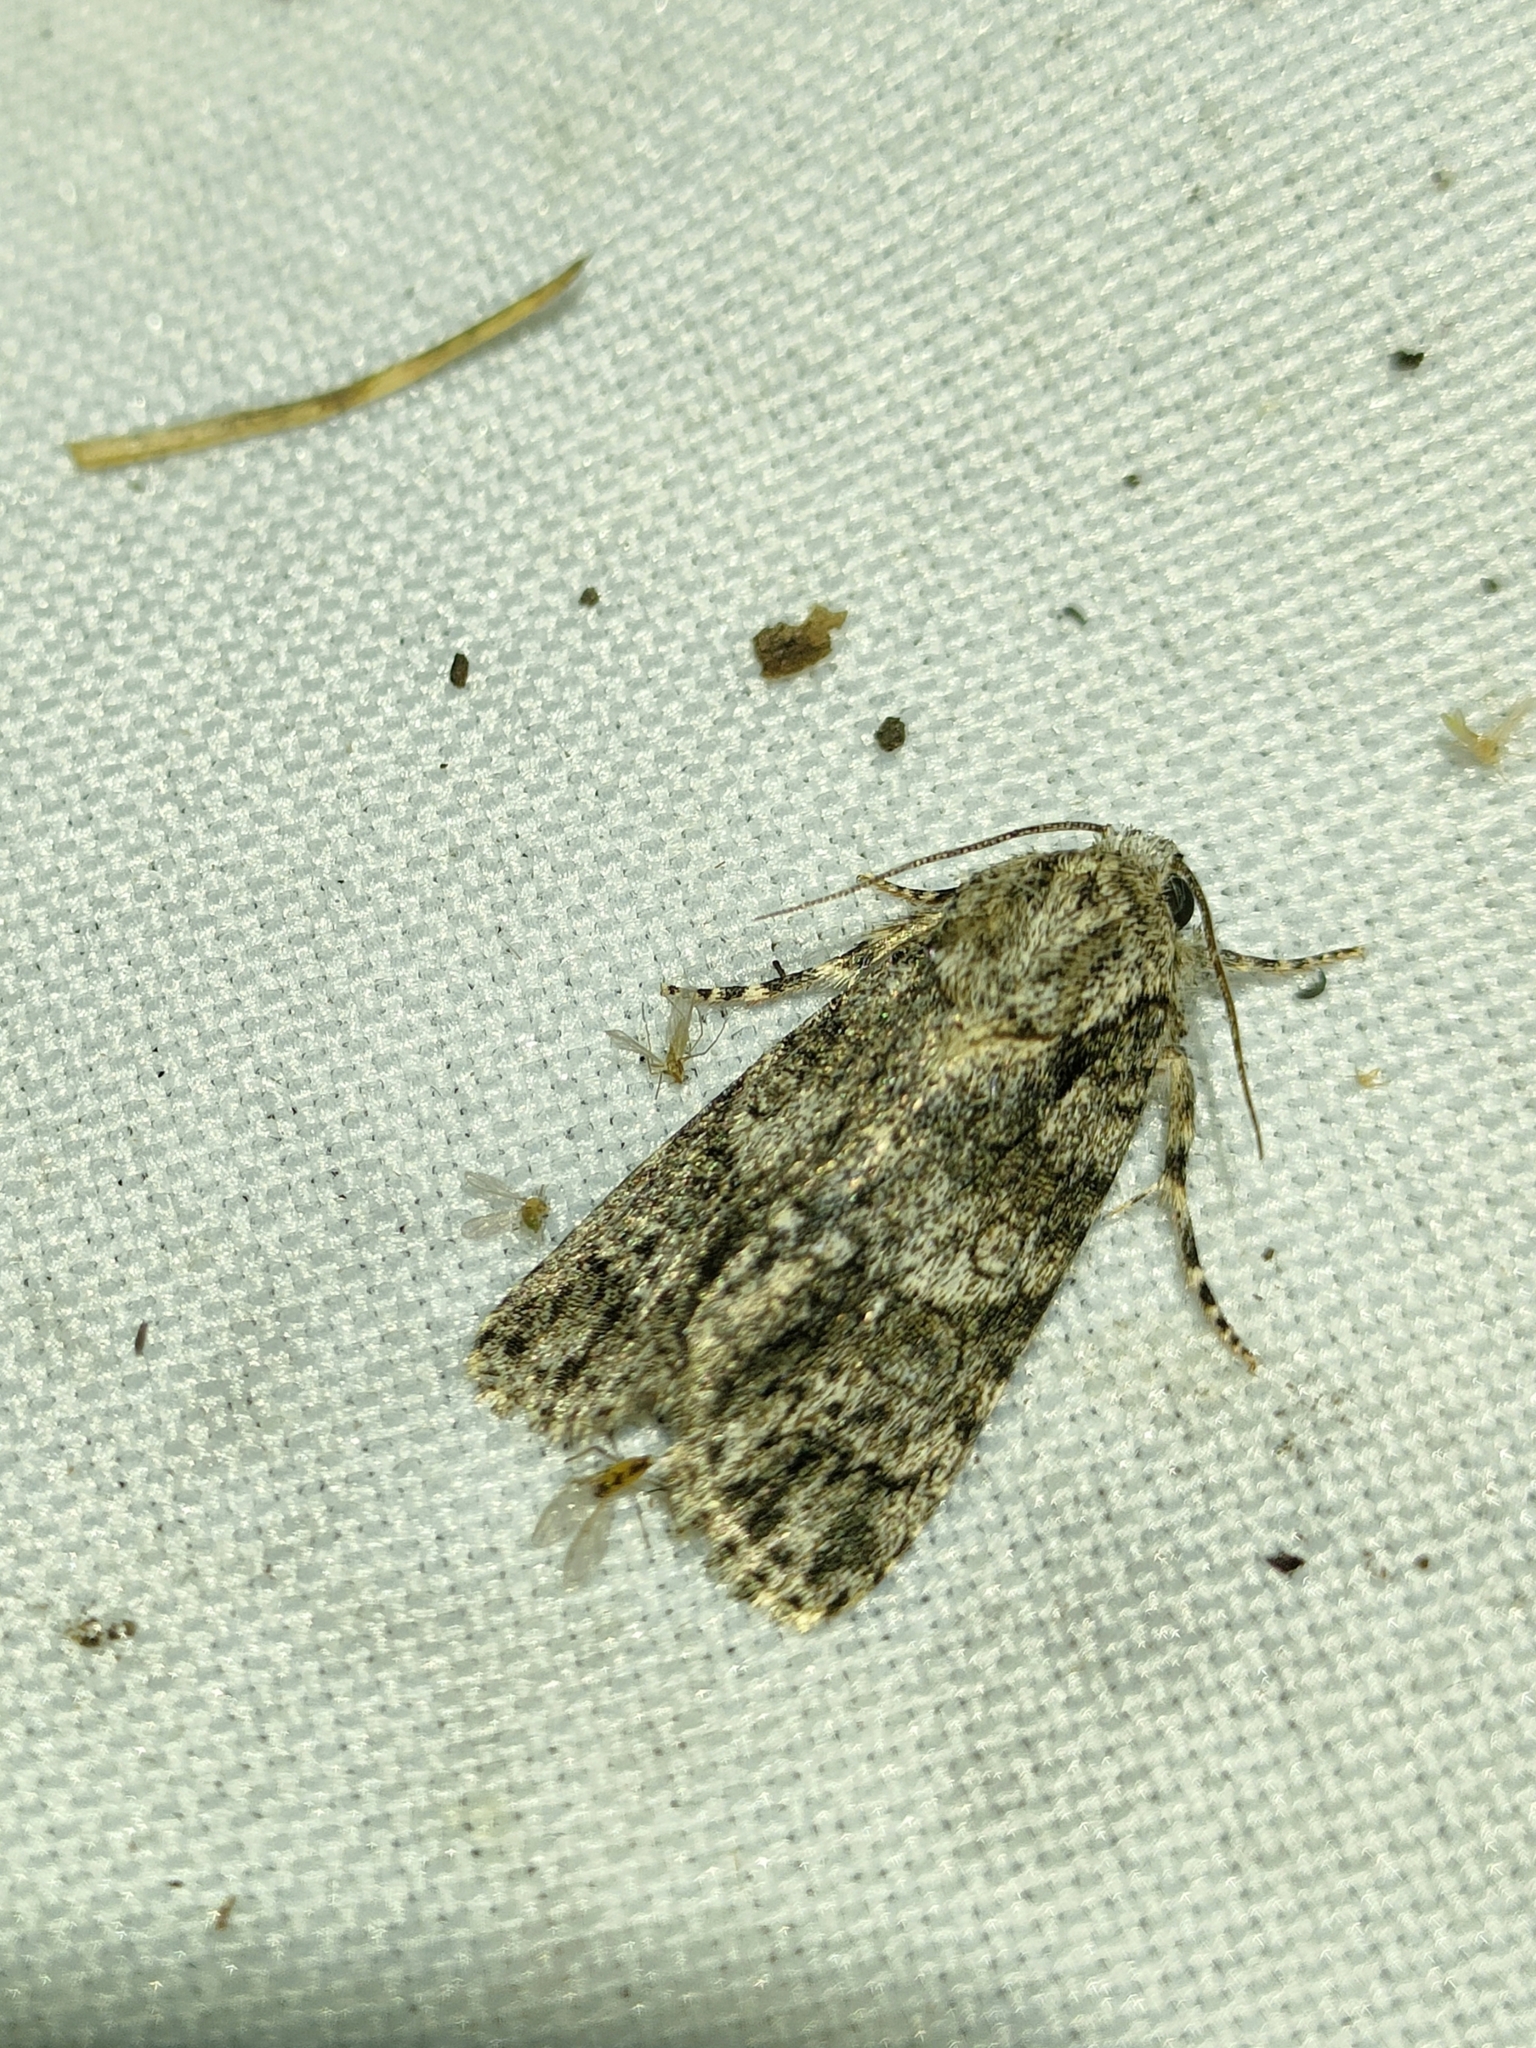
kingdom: Animalia
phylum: Arthropoda
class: Insecta
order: Lepidoptera
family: Noctuidae
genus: Acronicta
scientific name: Acronicta rumicis
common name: Knot grass
